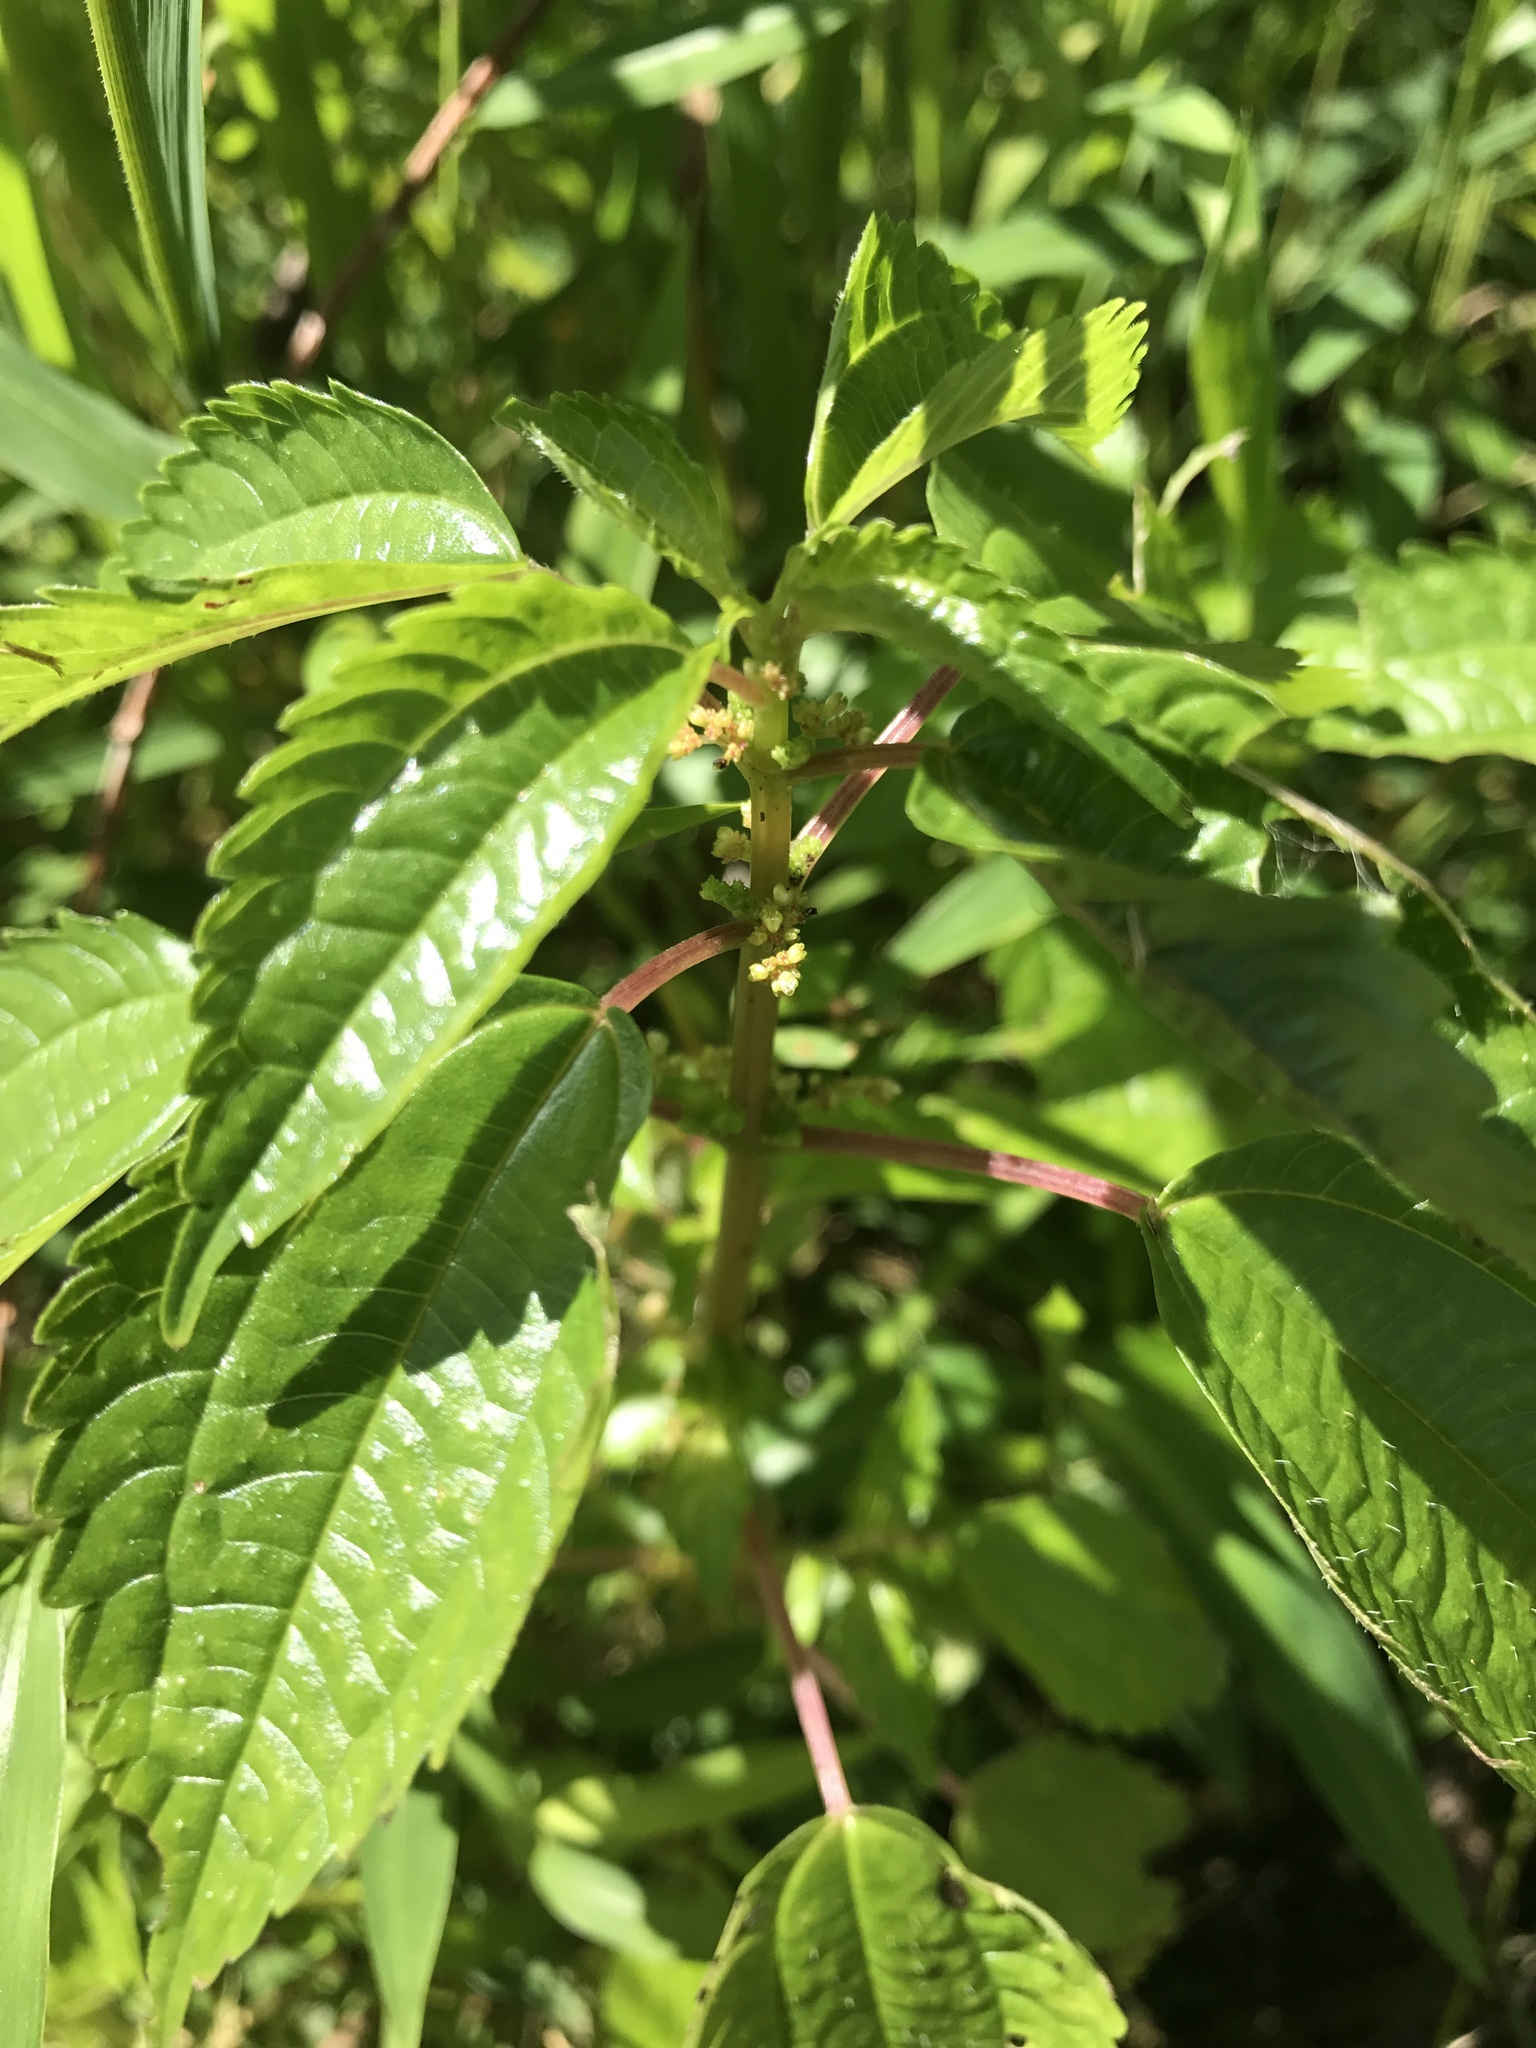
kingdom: Plantae
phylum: Tracheophyta
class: Magnoliopsida
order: Rosales
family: Urticaceae
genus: Pilea
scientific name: Pilea pumila
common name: Clearweed
